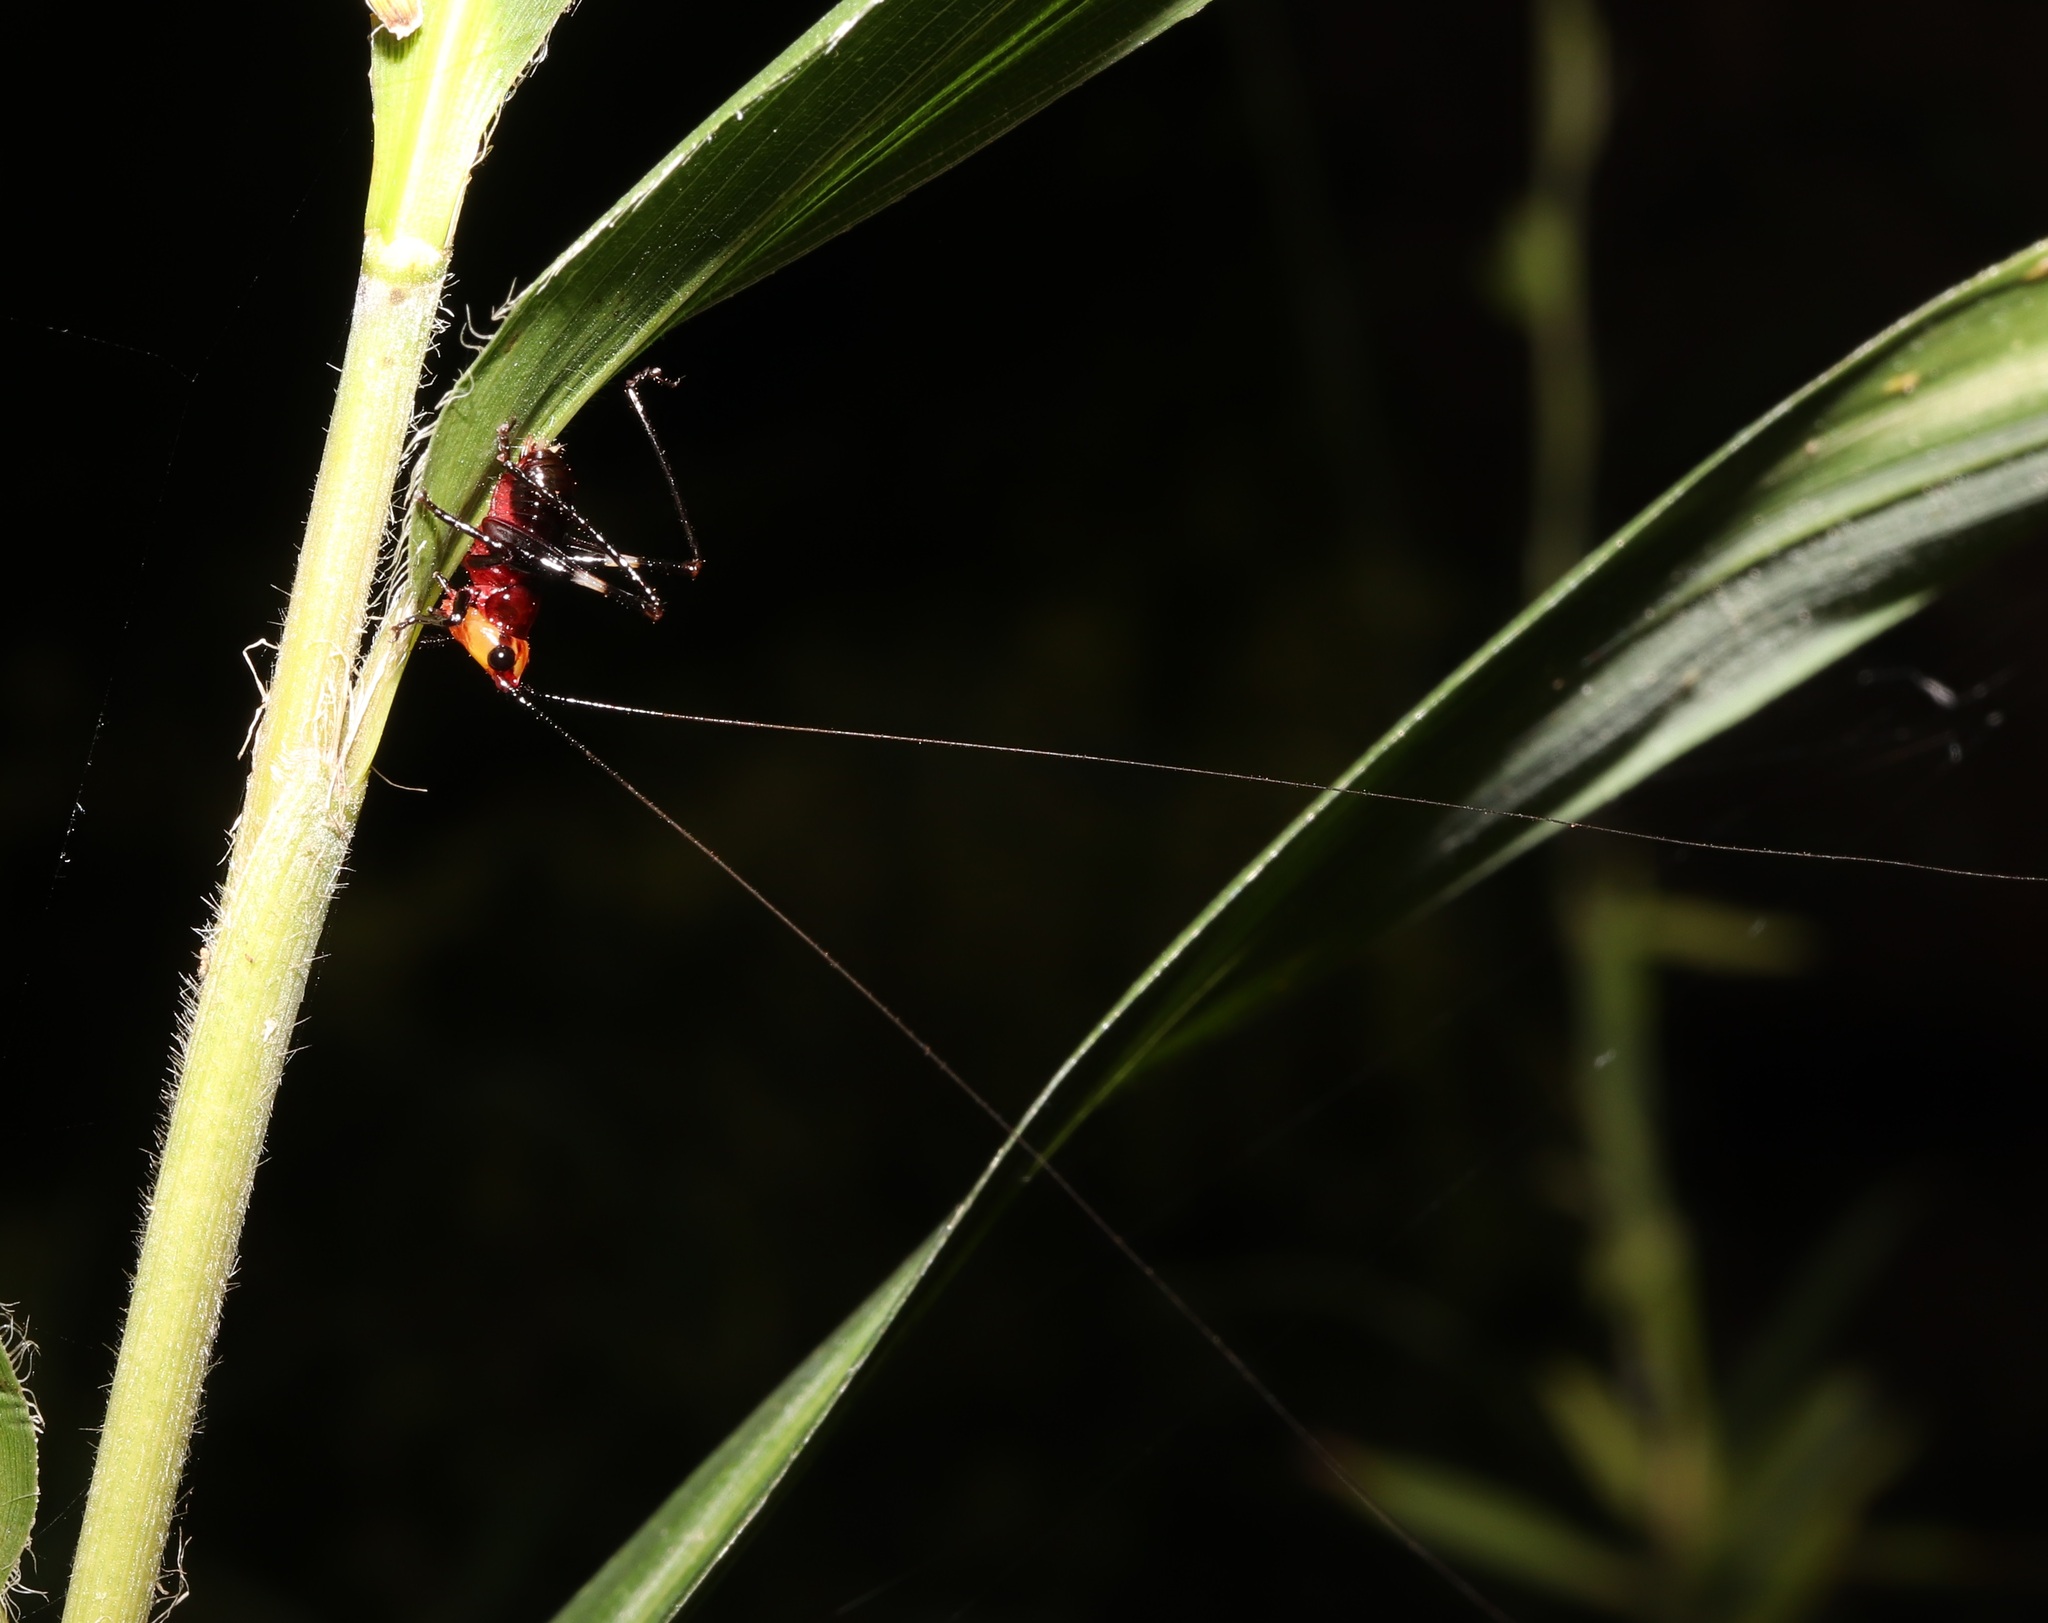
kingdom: Animalia
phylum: Arthropoda
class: Insecta
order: Orthoptera
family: Tettigoniidae
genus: Conocephalus
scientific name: Conocephalus melaenus
